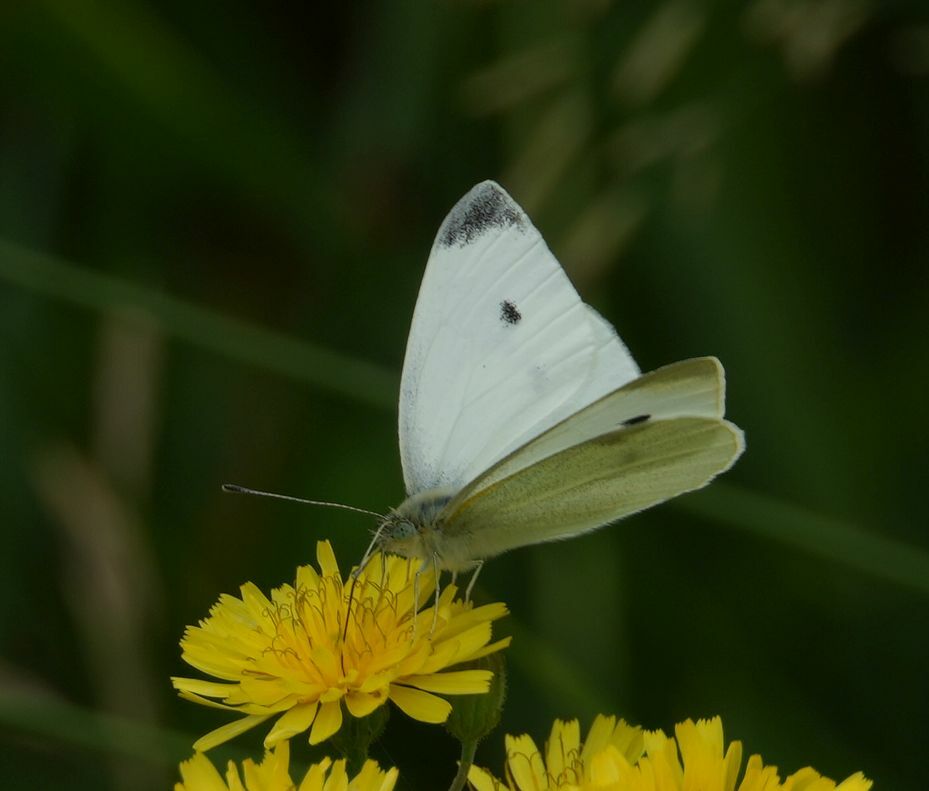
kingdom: Animalia
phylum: Arthropoda
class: Insecta
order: Lepidoptera
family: Pieridae
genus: Pieris
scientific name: Pieris rapae
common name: Small white
